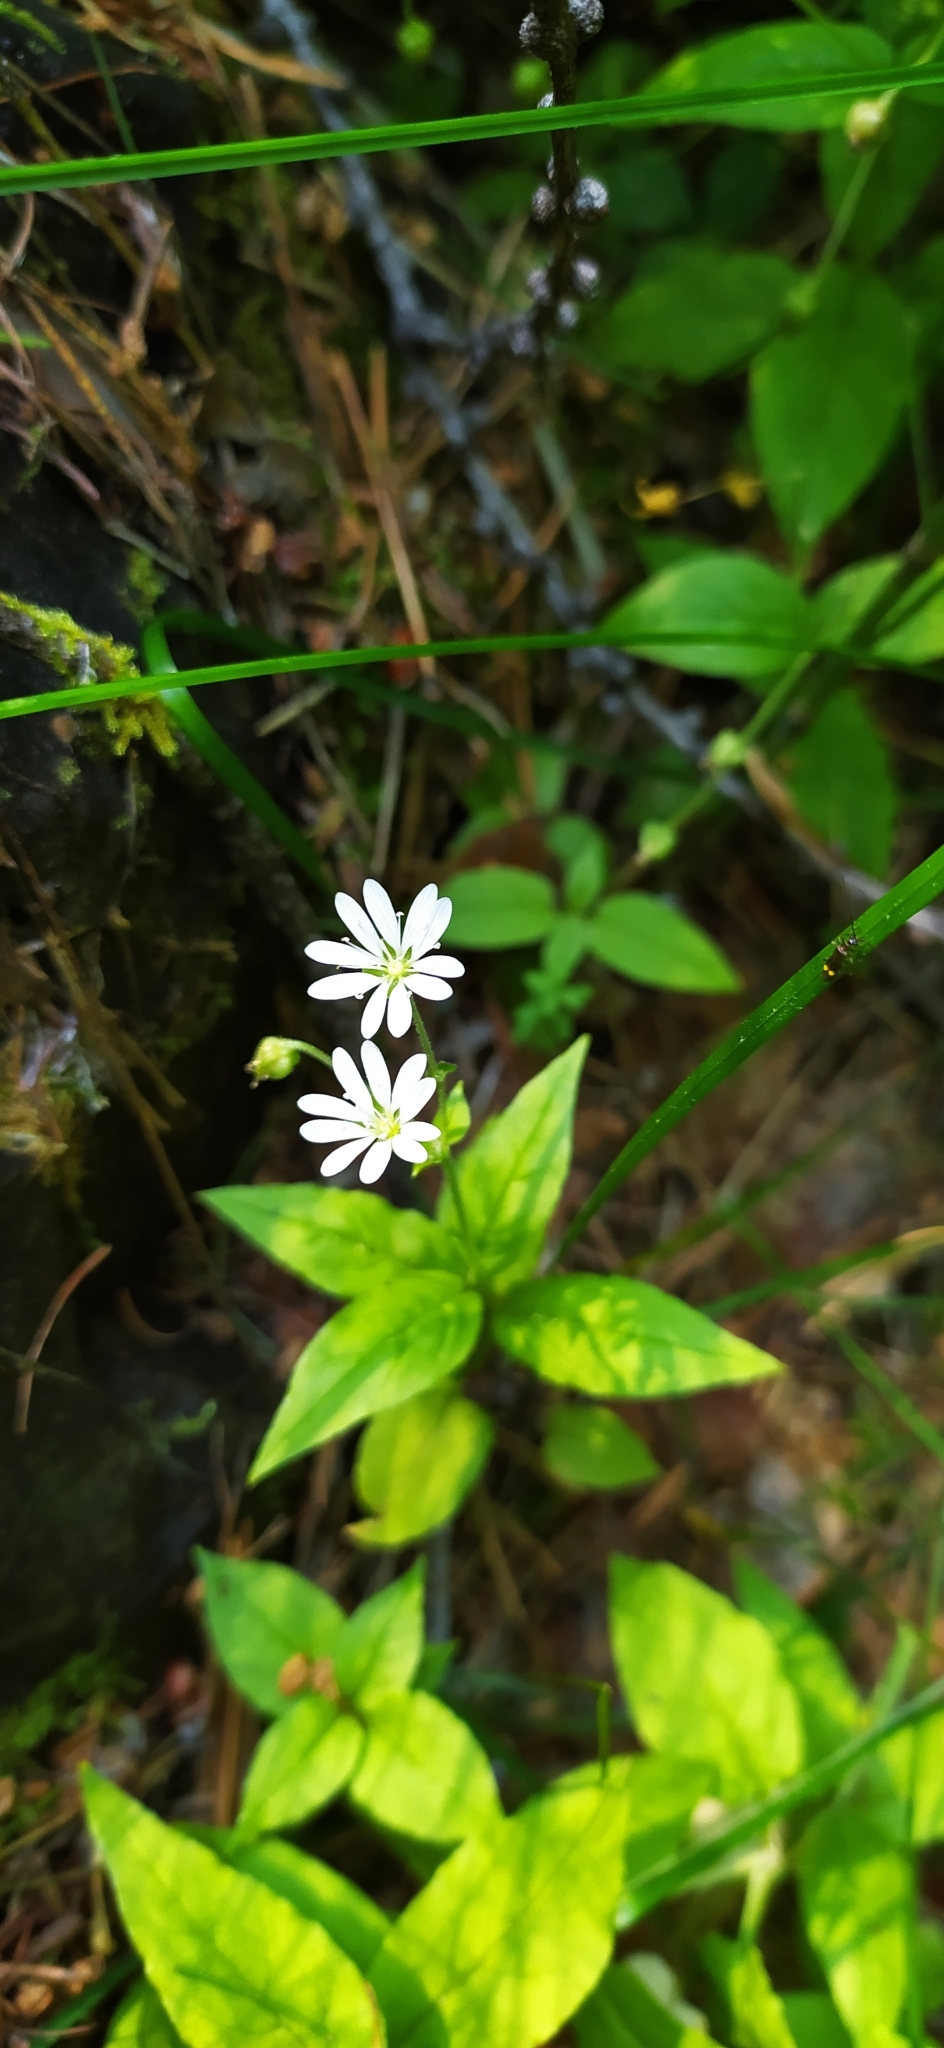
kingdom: Plantae
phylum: Tracheophyta
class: Magnoliopsida
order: Caryophyllales
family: Caryophyllaceae
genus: Stellaria
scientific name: Stellaria bungeana
